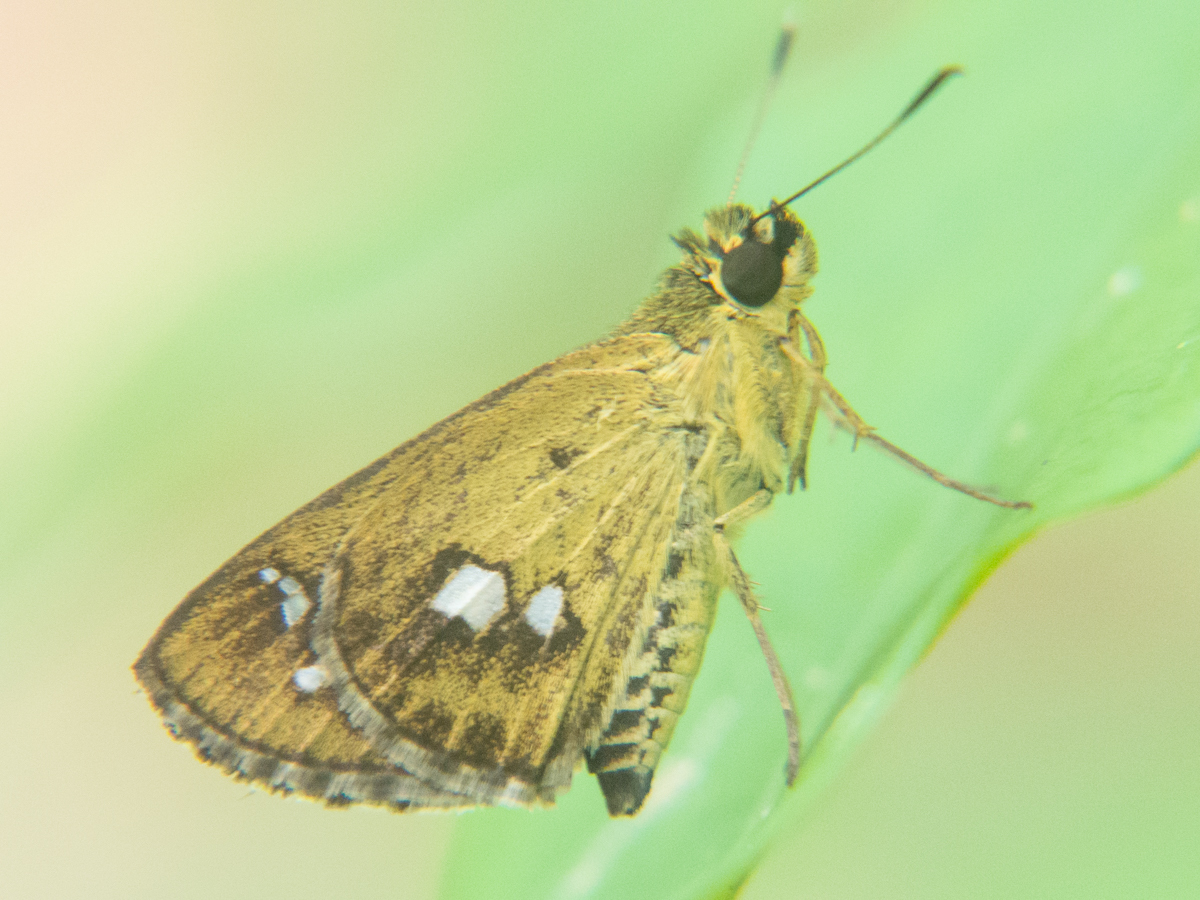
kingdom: Animalia
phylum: Arthropoda
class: Insecta
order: Lepidoptera
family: Hesperiidae
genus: Scobura
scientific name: Scobura isota
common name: Swinhoe's forest bob
